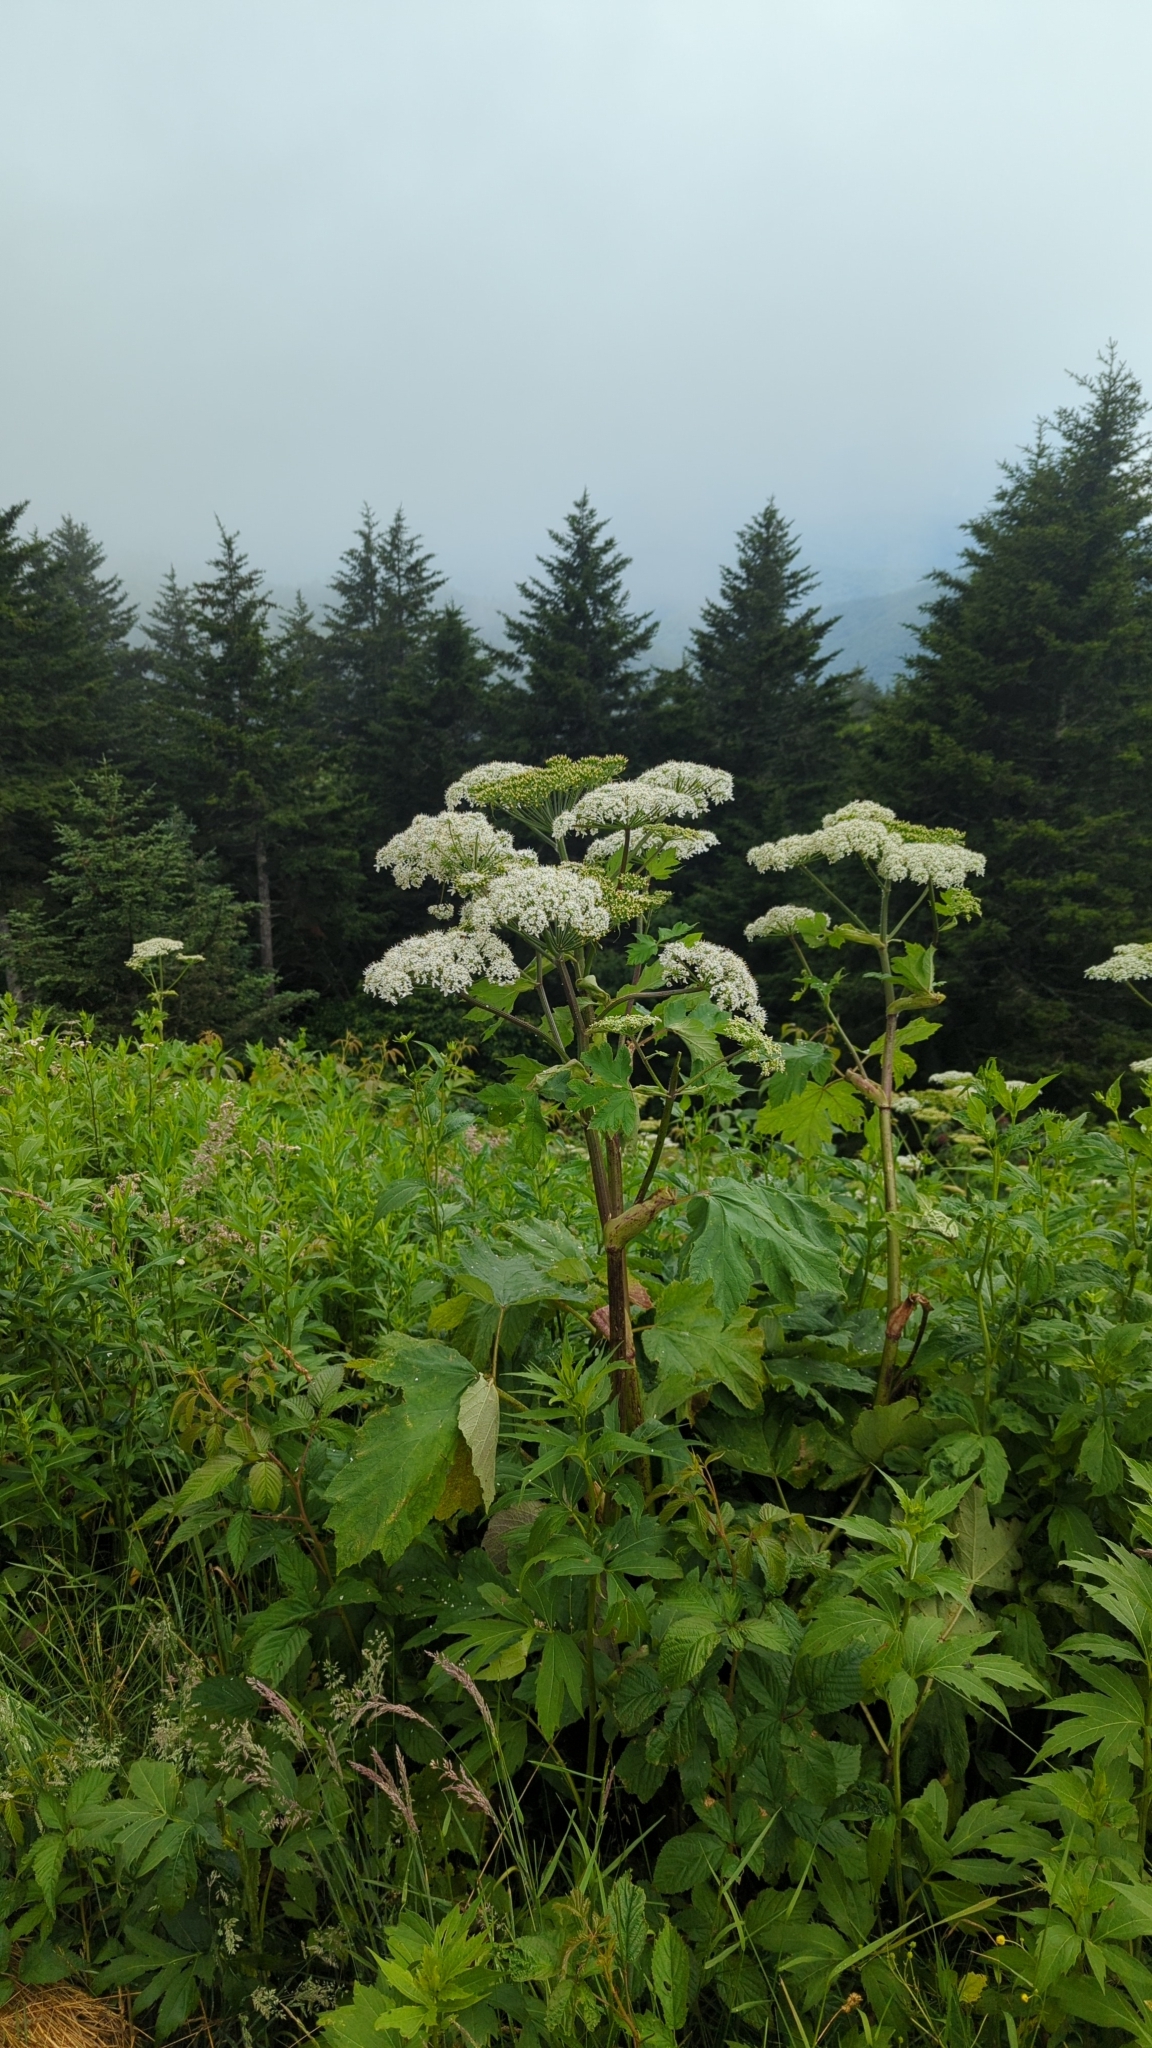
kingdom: Plantae
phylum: Tracheophyta
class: Magnoliopsida
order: Apiales
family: Apiaceae
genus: Heracleum
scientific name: Heracleum maximum
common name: American cow parsnip
